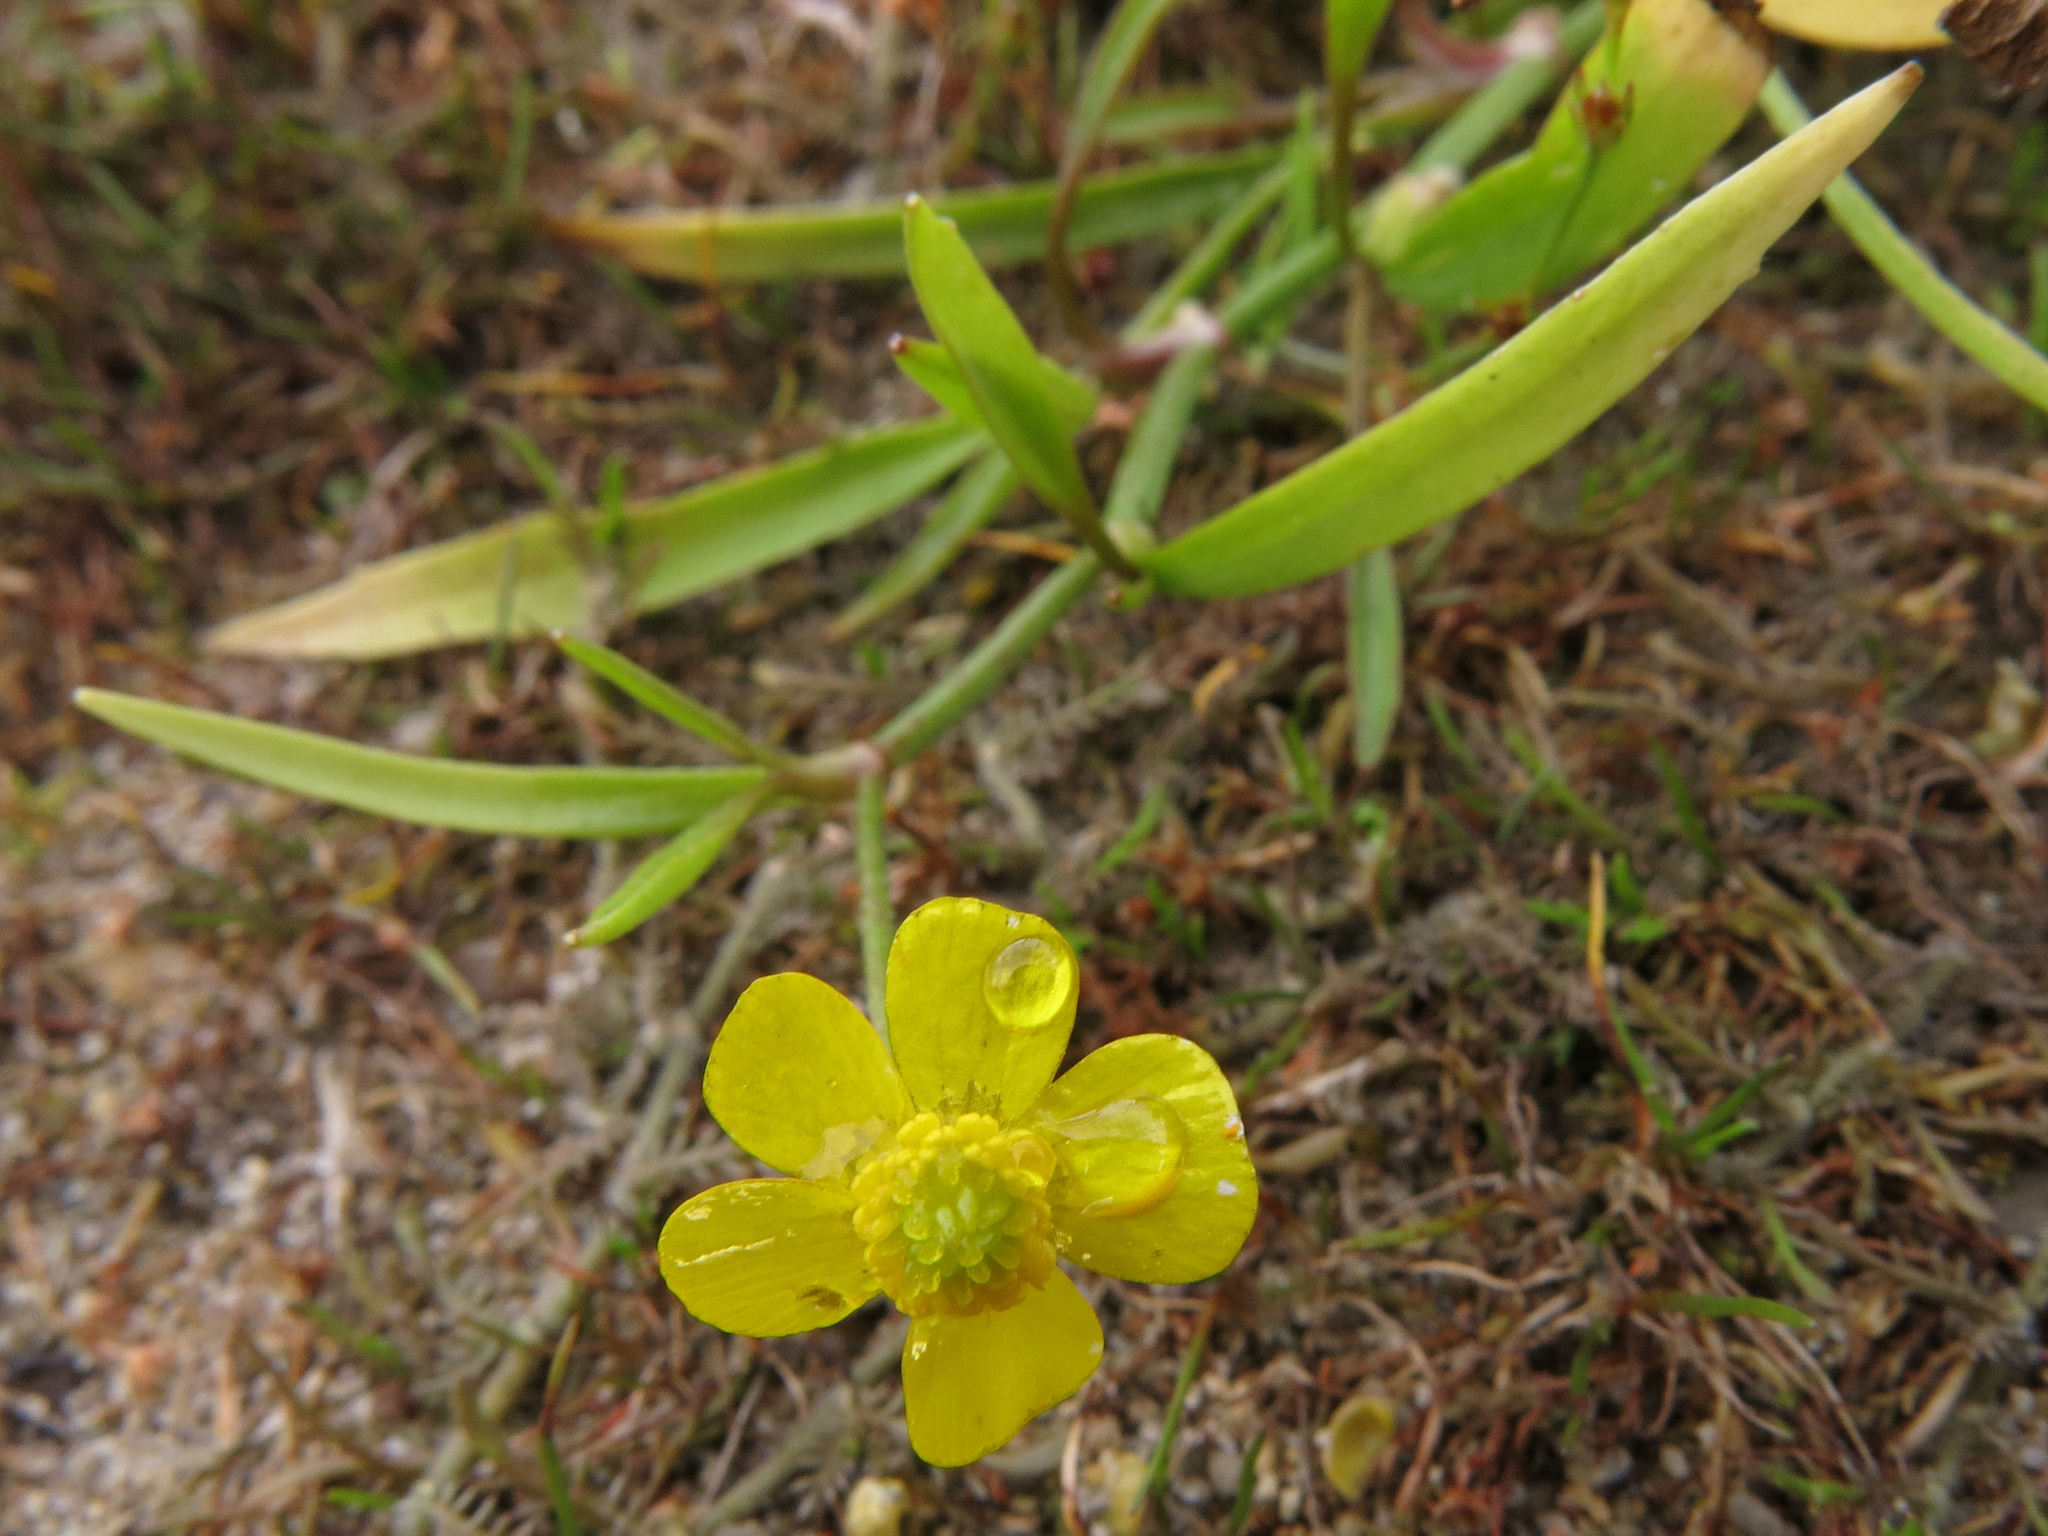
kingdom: Plantae
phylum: Tracheophyta
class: Magnoliopsida
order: Ranunculales
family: Ranunculaceae
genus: Ranunculus
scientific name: Ranunculus flammula
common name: Lesser spearwort
